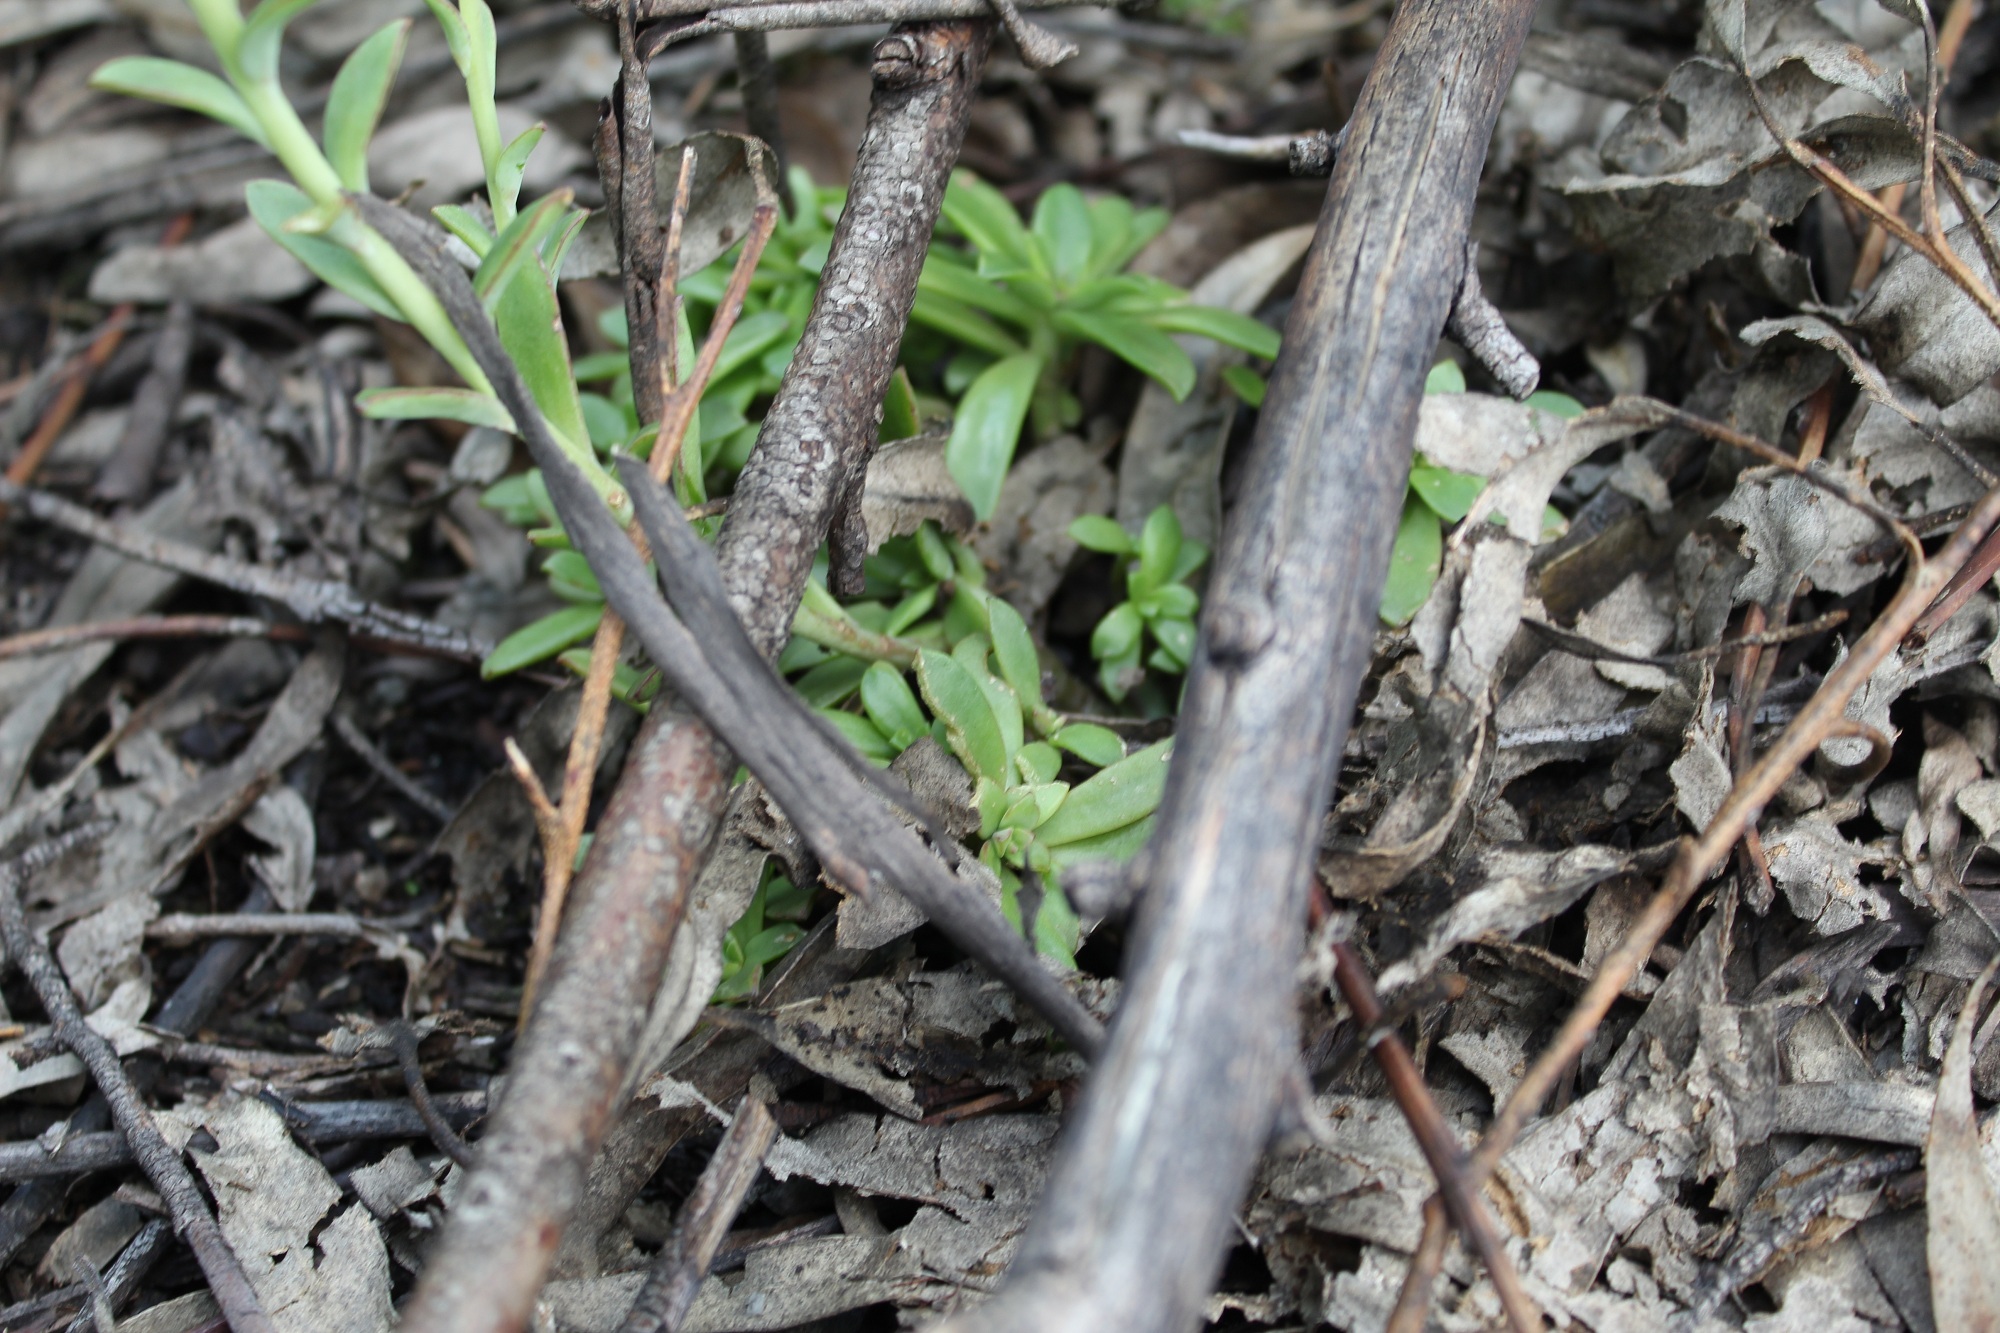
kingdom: Plantae
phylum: Tracheophyta
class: Magnoliopsida
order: Saxifragales
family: Crassulaceae
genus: Echeveria
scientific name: Echeveria bicolor
